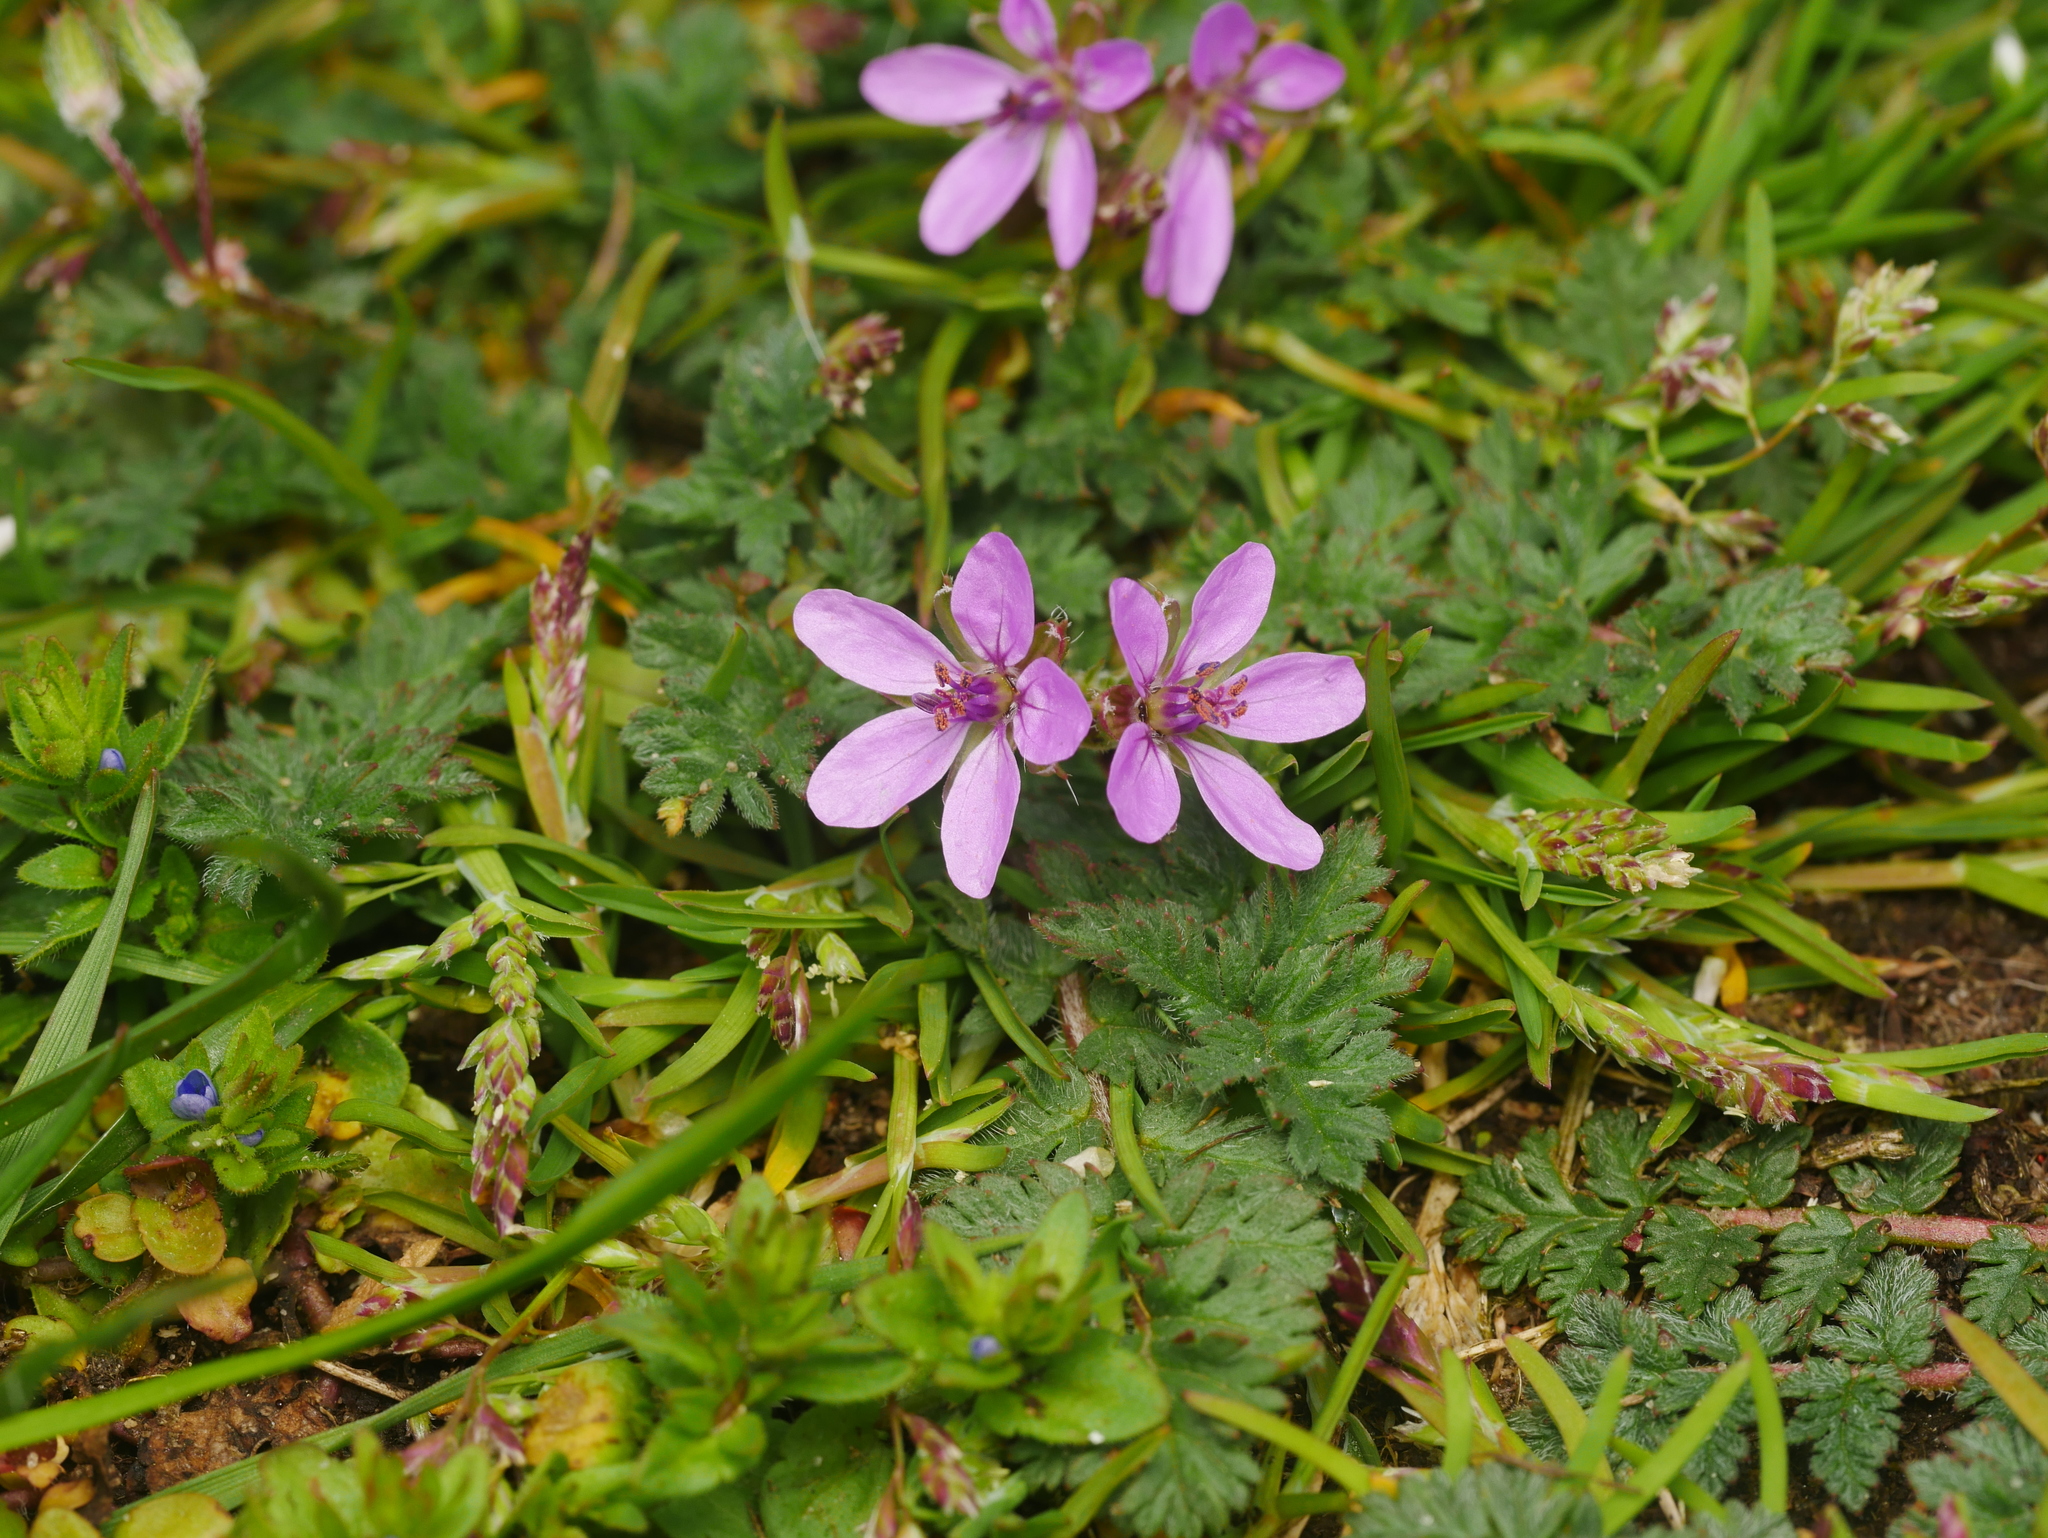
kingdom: Plantae
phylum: Tracheophyta
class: Magnoliopsida
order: Geraniales
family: Geraniaceae
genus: Erodium
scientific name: Erodium cicutarium
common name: Common stork's-bill
